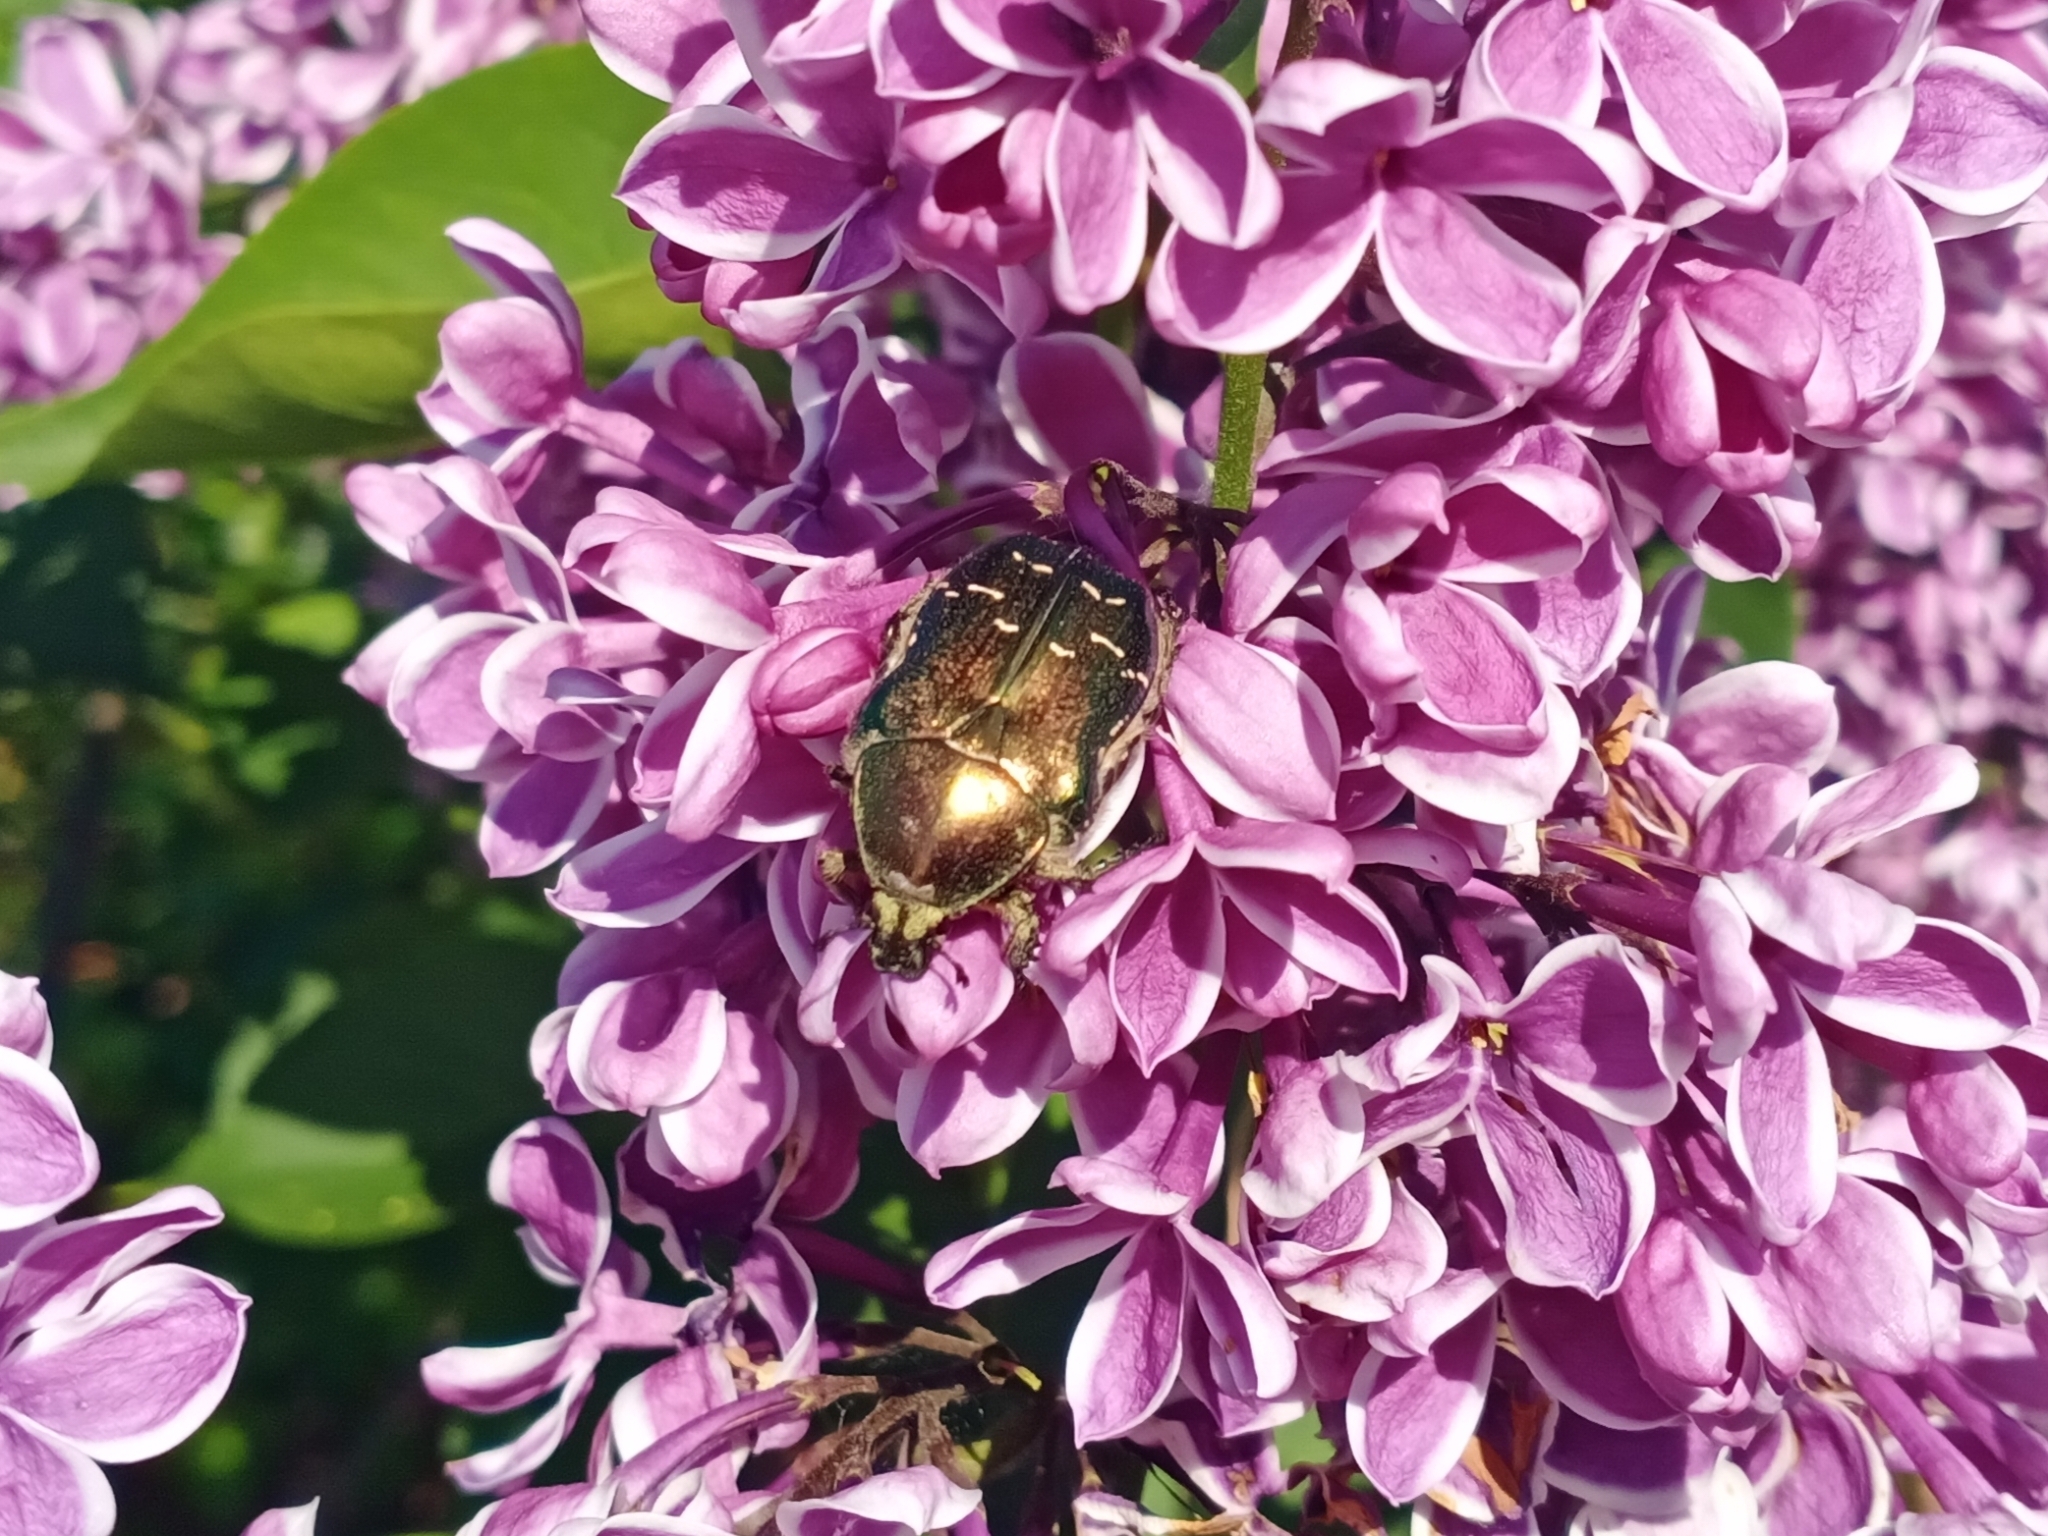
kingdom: Animalia
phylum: Arthropoda
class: Insecta
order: Coleoptera
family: Scarabaeidae
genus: Cetonia
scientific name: Cetonia aurata
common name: Rose chafer
